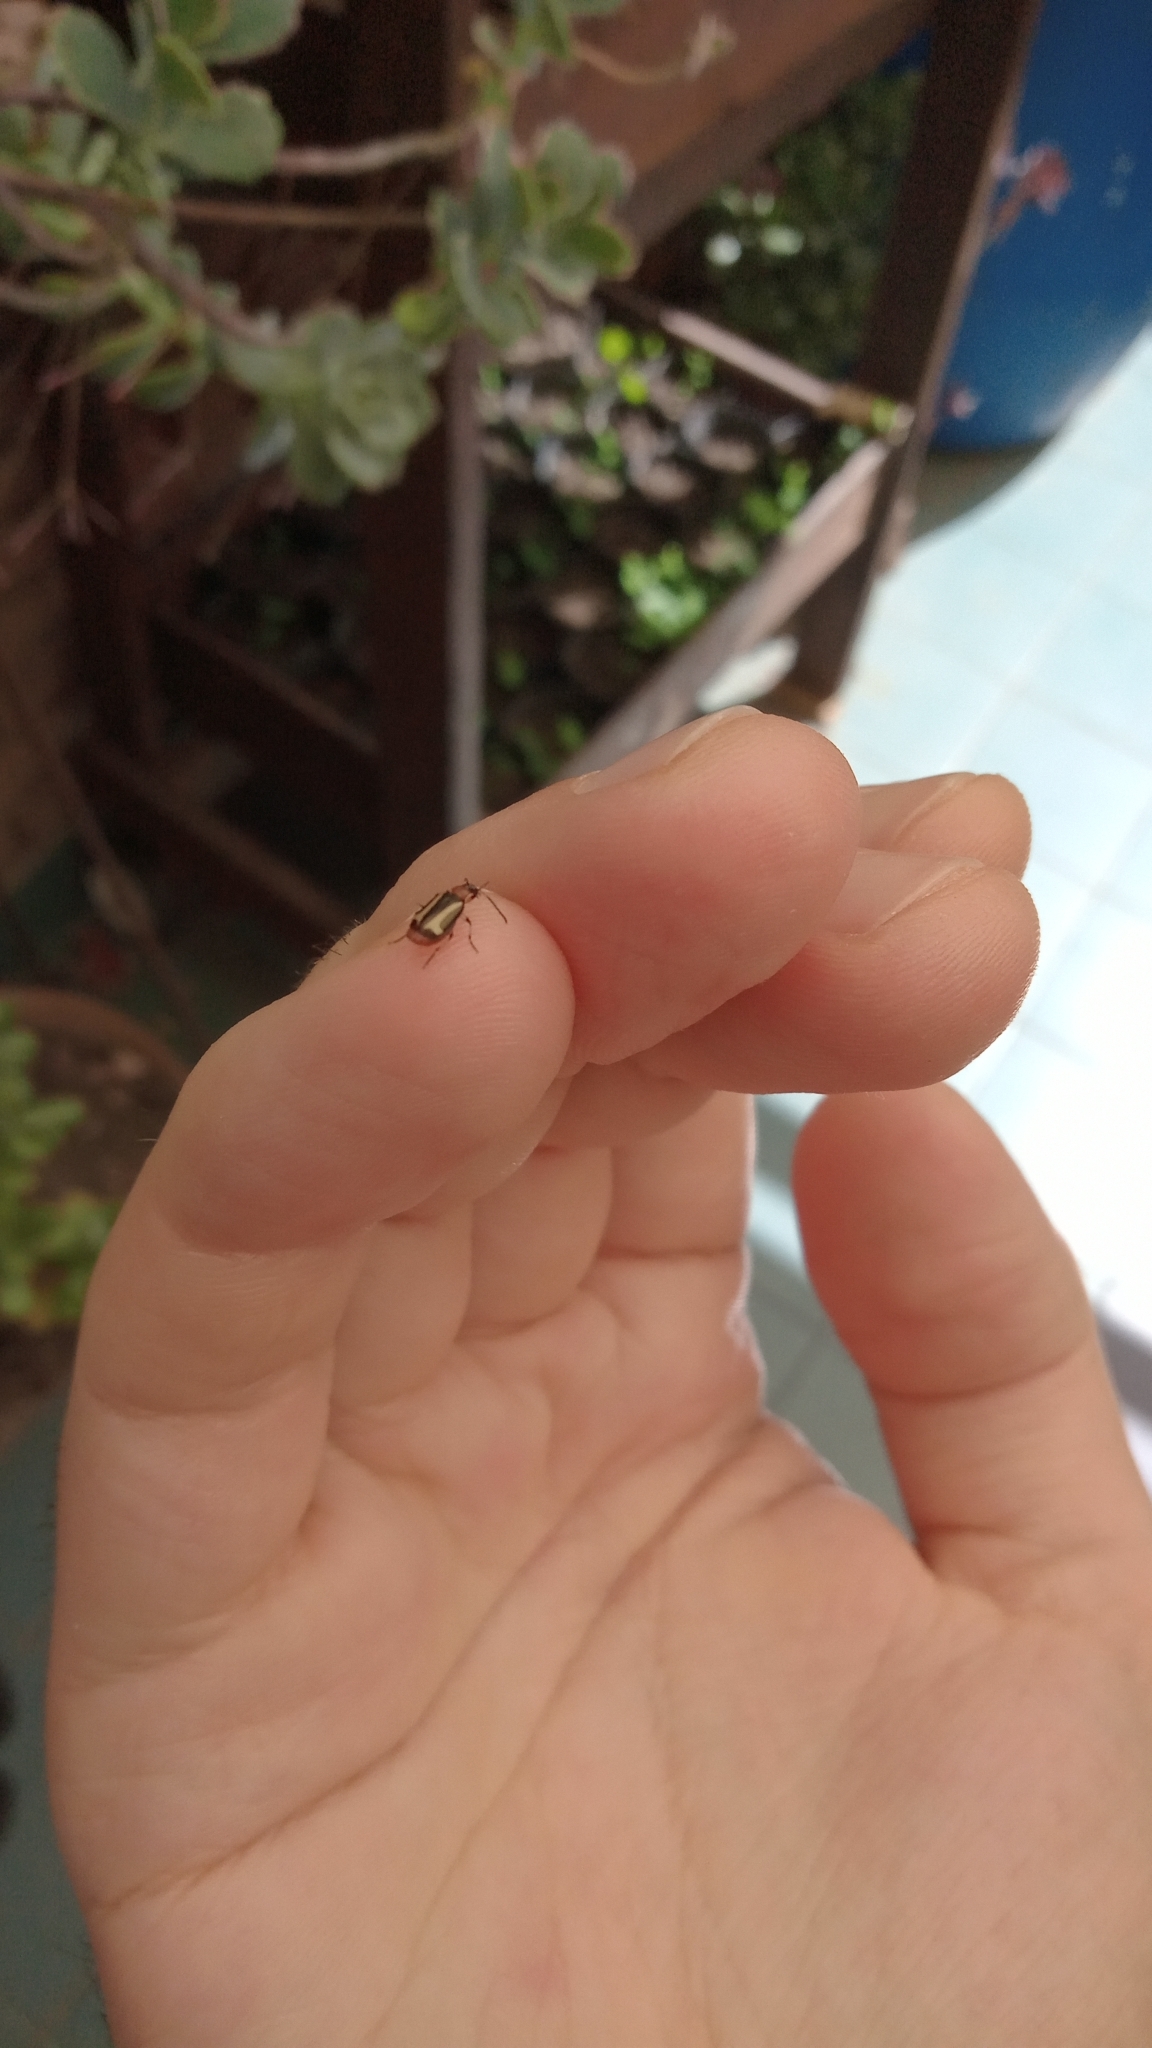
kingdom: Animalia
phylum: Arthropoda
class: Insecta
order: Coleoptera
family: Carabidae
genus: Lebia
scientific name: Lebia securigera
